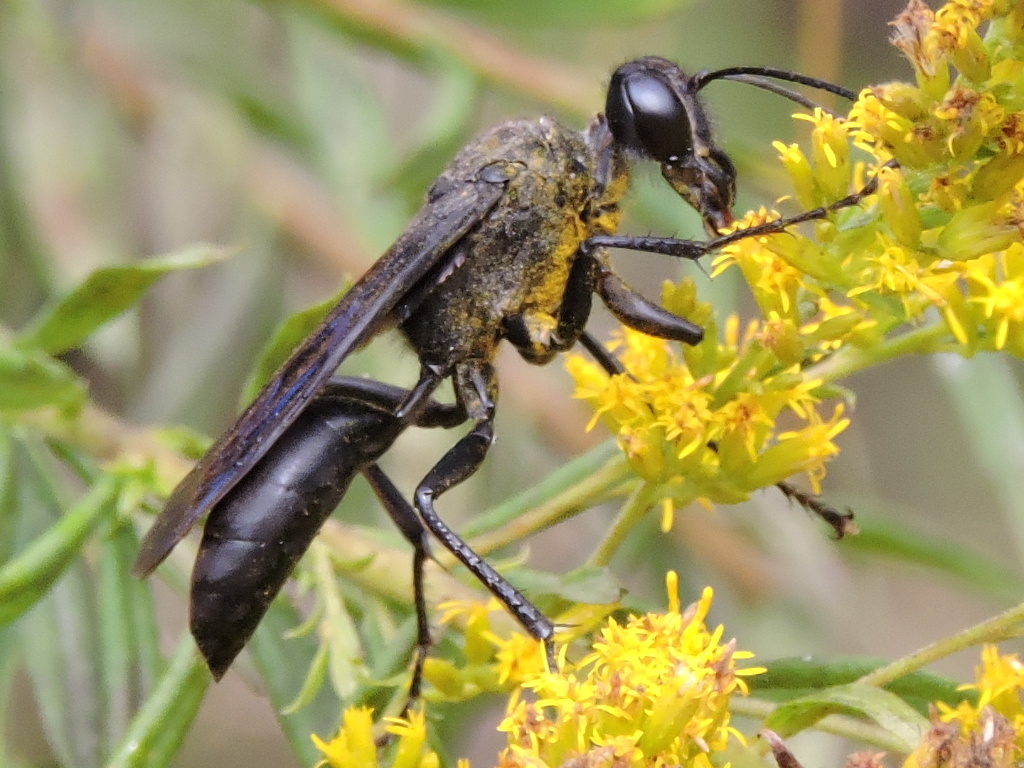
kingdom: Animalia
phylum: Arthropoda
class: Insecta
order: Hymenoptera
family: Sphecidae
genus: Sphex
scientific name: Sphex pensylvanicus
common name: Great black digger wasp
